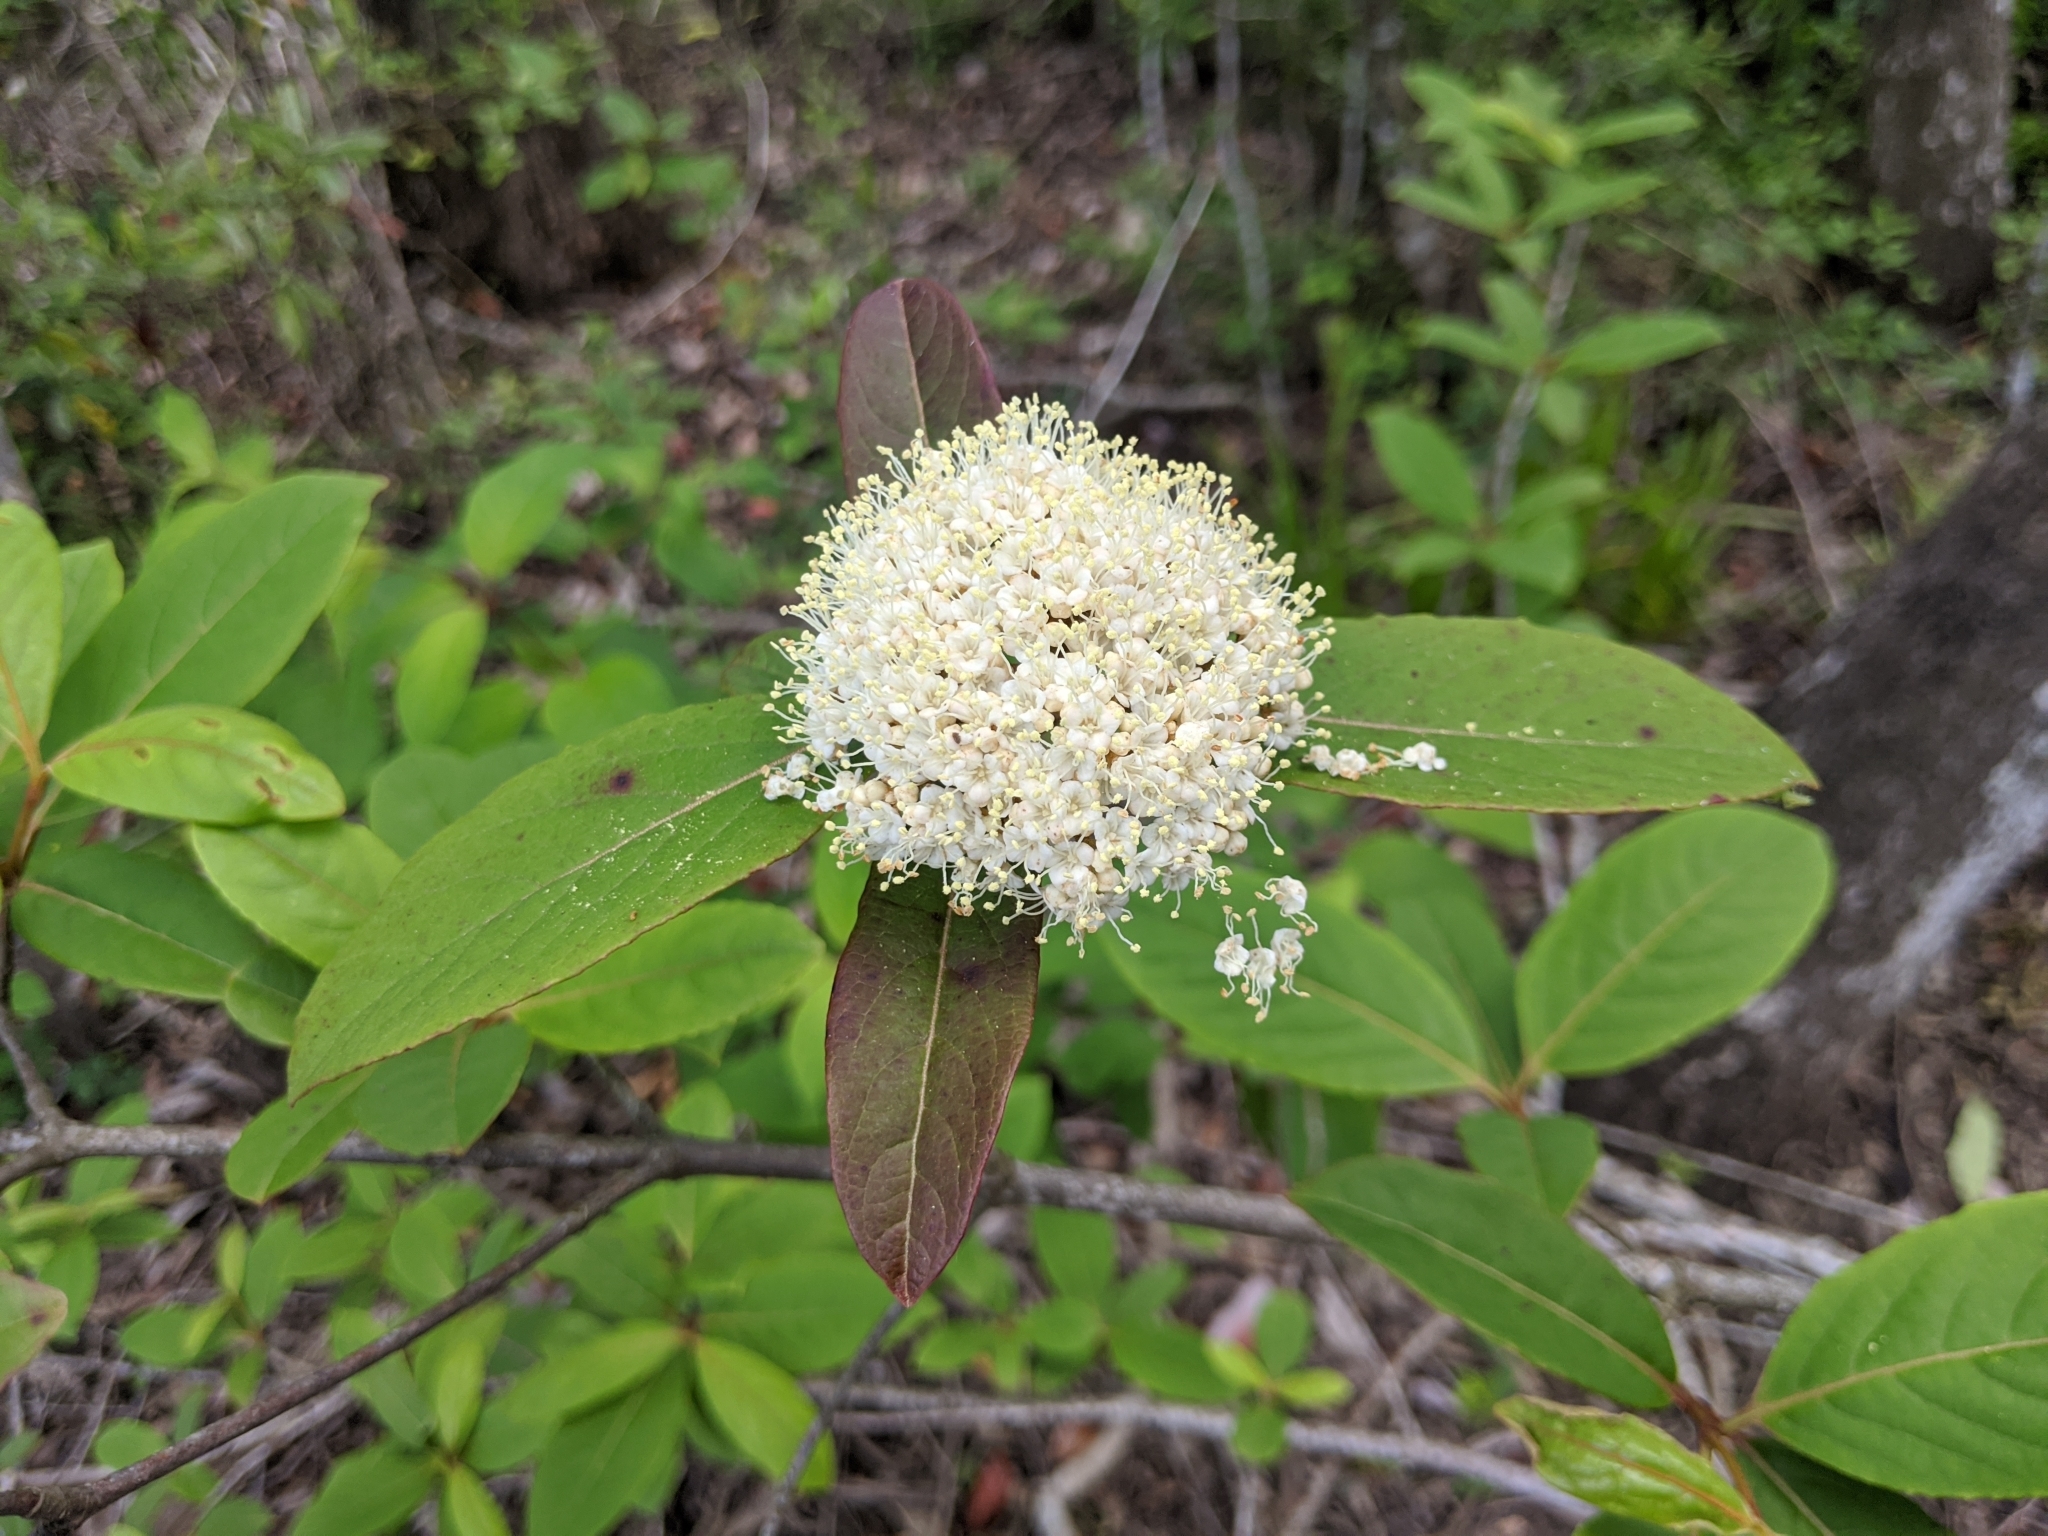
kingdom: Plantae
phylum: Tracheophyta
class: Magnoliopsida
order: Dipsacales
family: Viburnaceae
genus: Viburnum
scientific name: Viburnum nudum
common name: Possum haw
